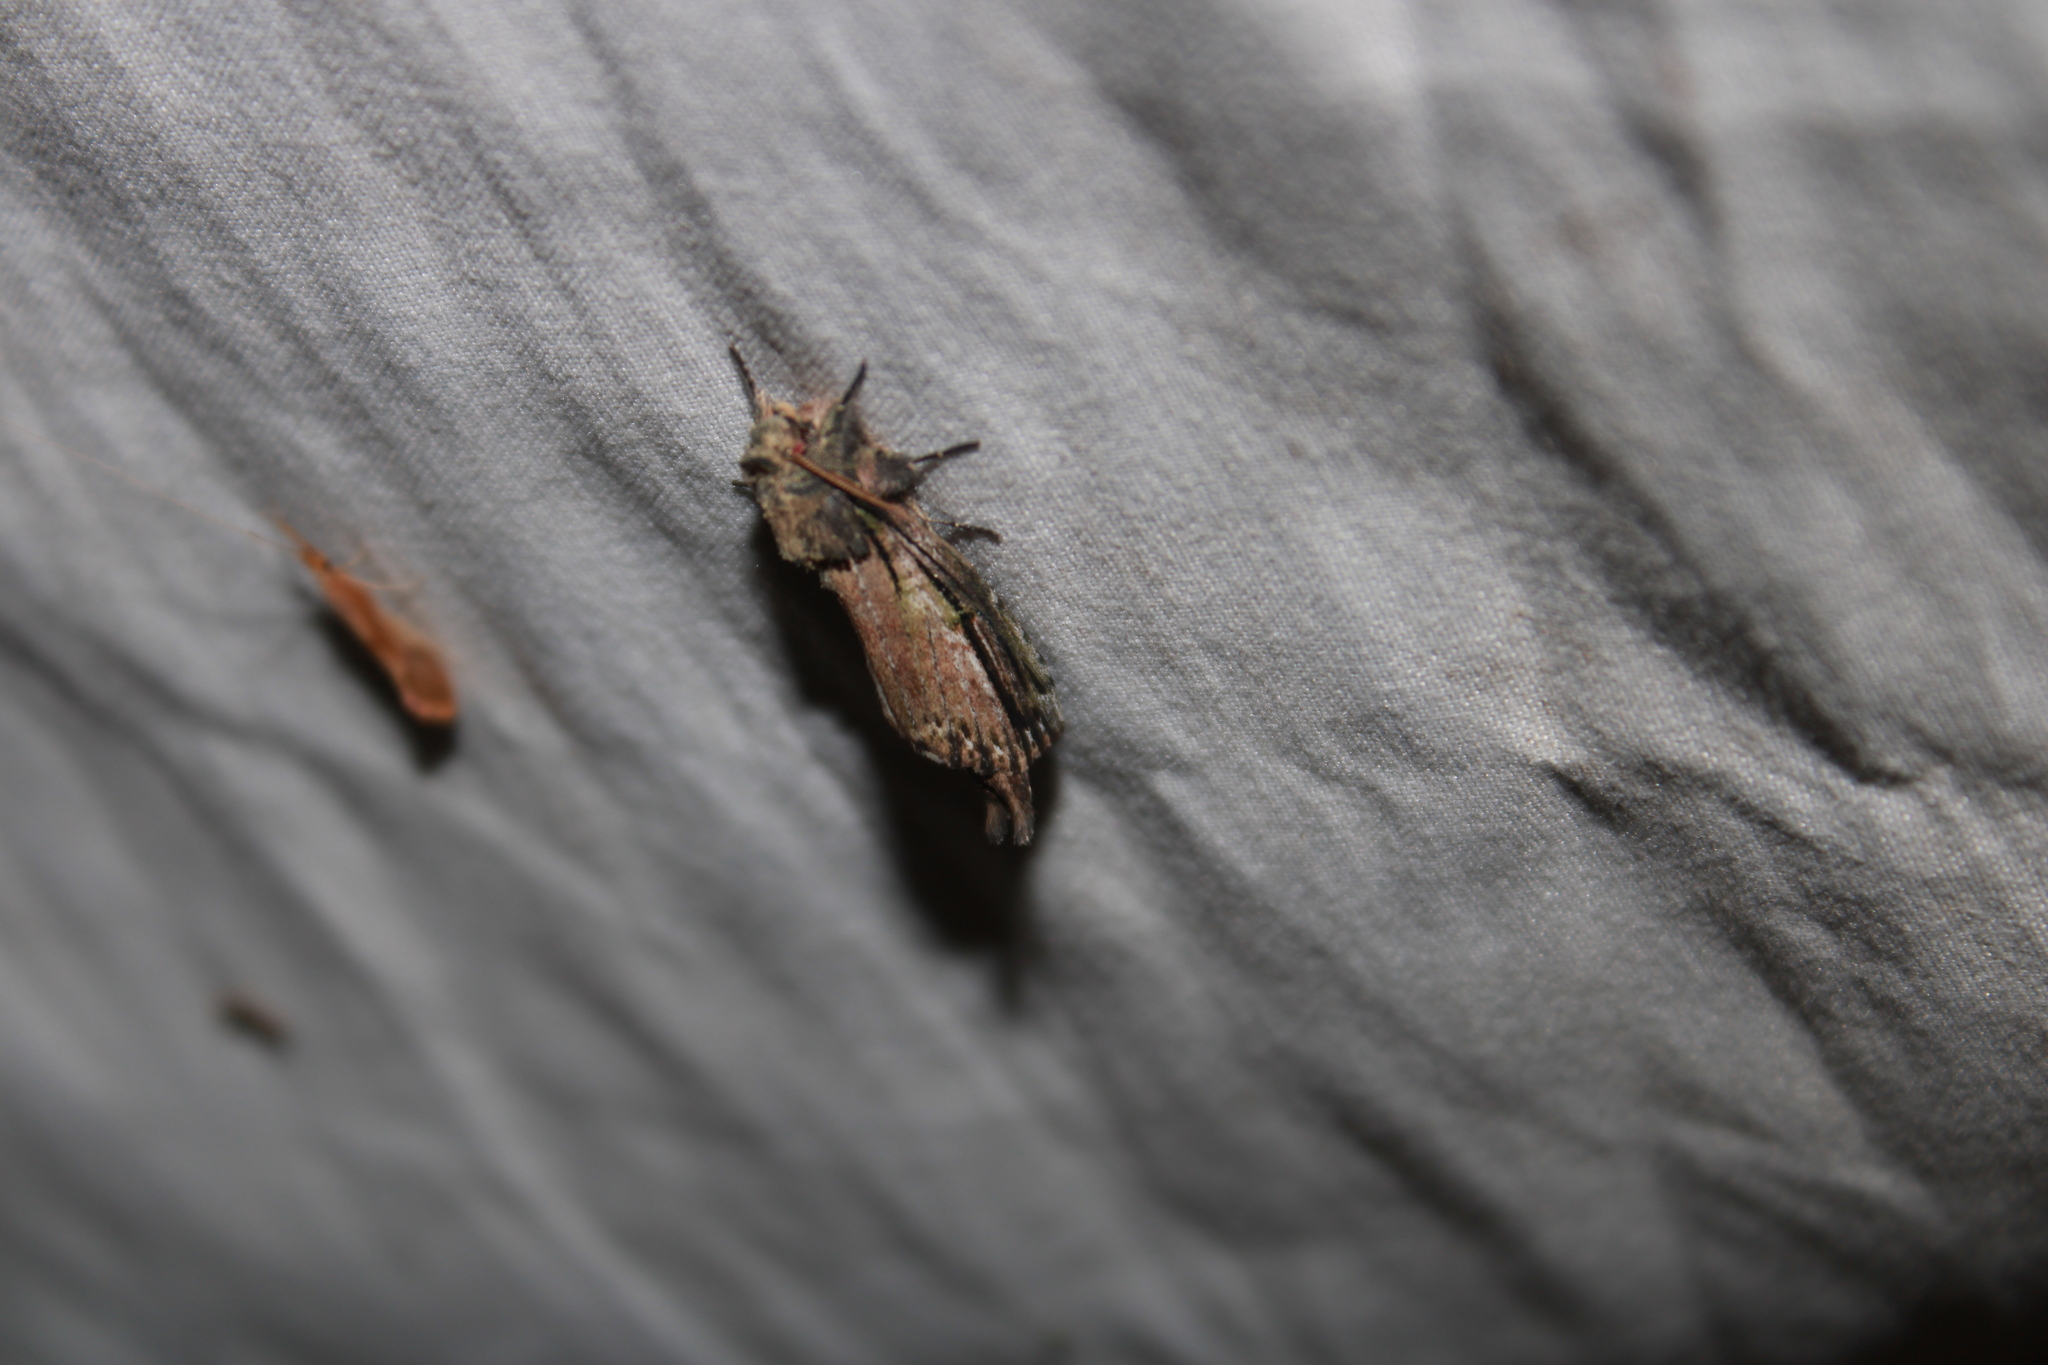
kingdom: Animalia
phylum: Arthropoda
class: Insecta
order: Lepidoptera
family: Notodontidae
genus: Schizura
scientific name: Schizura ipomaeae
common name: Morning-glory prominent
